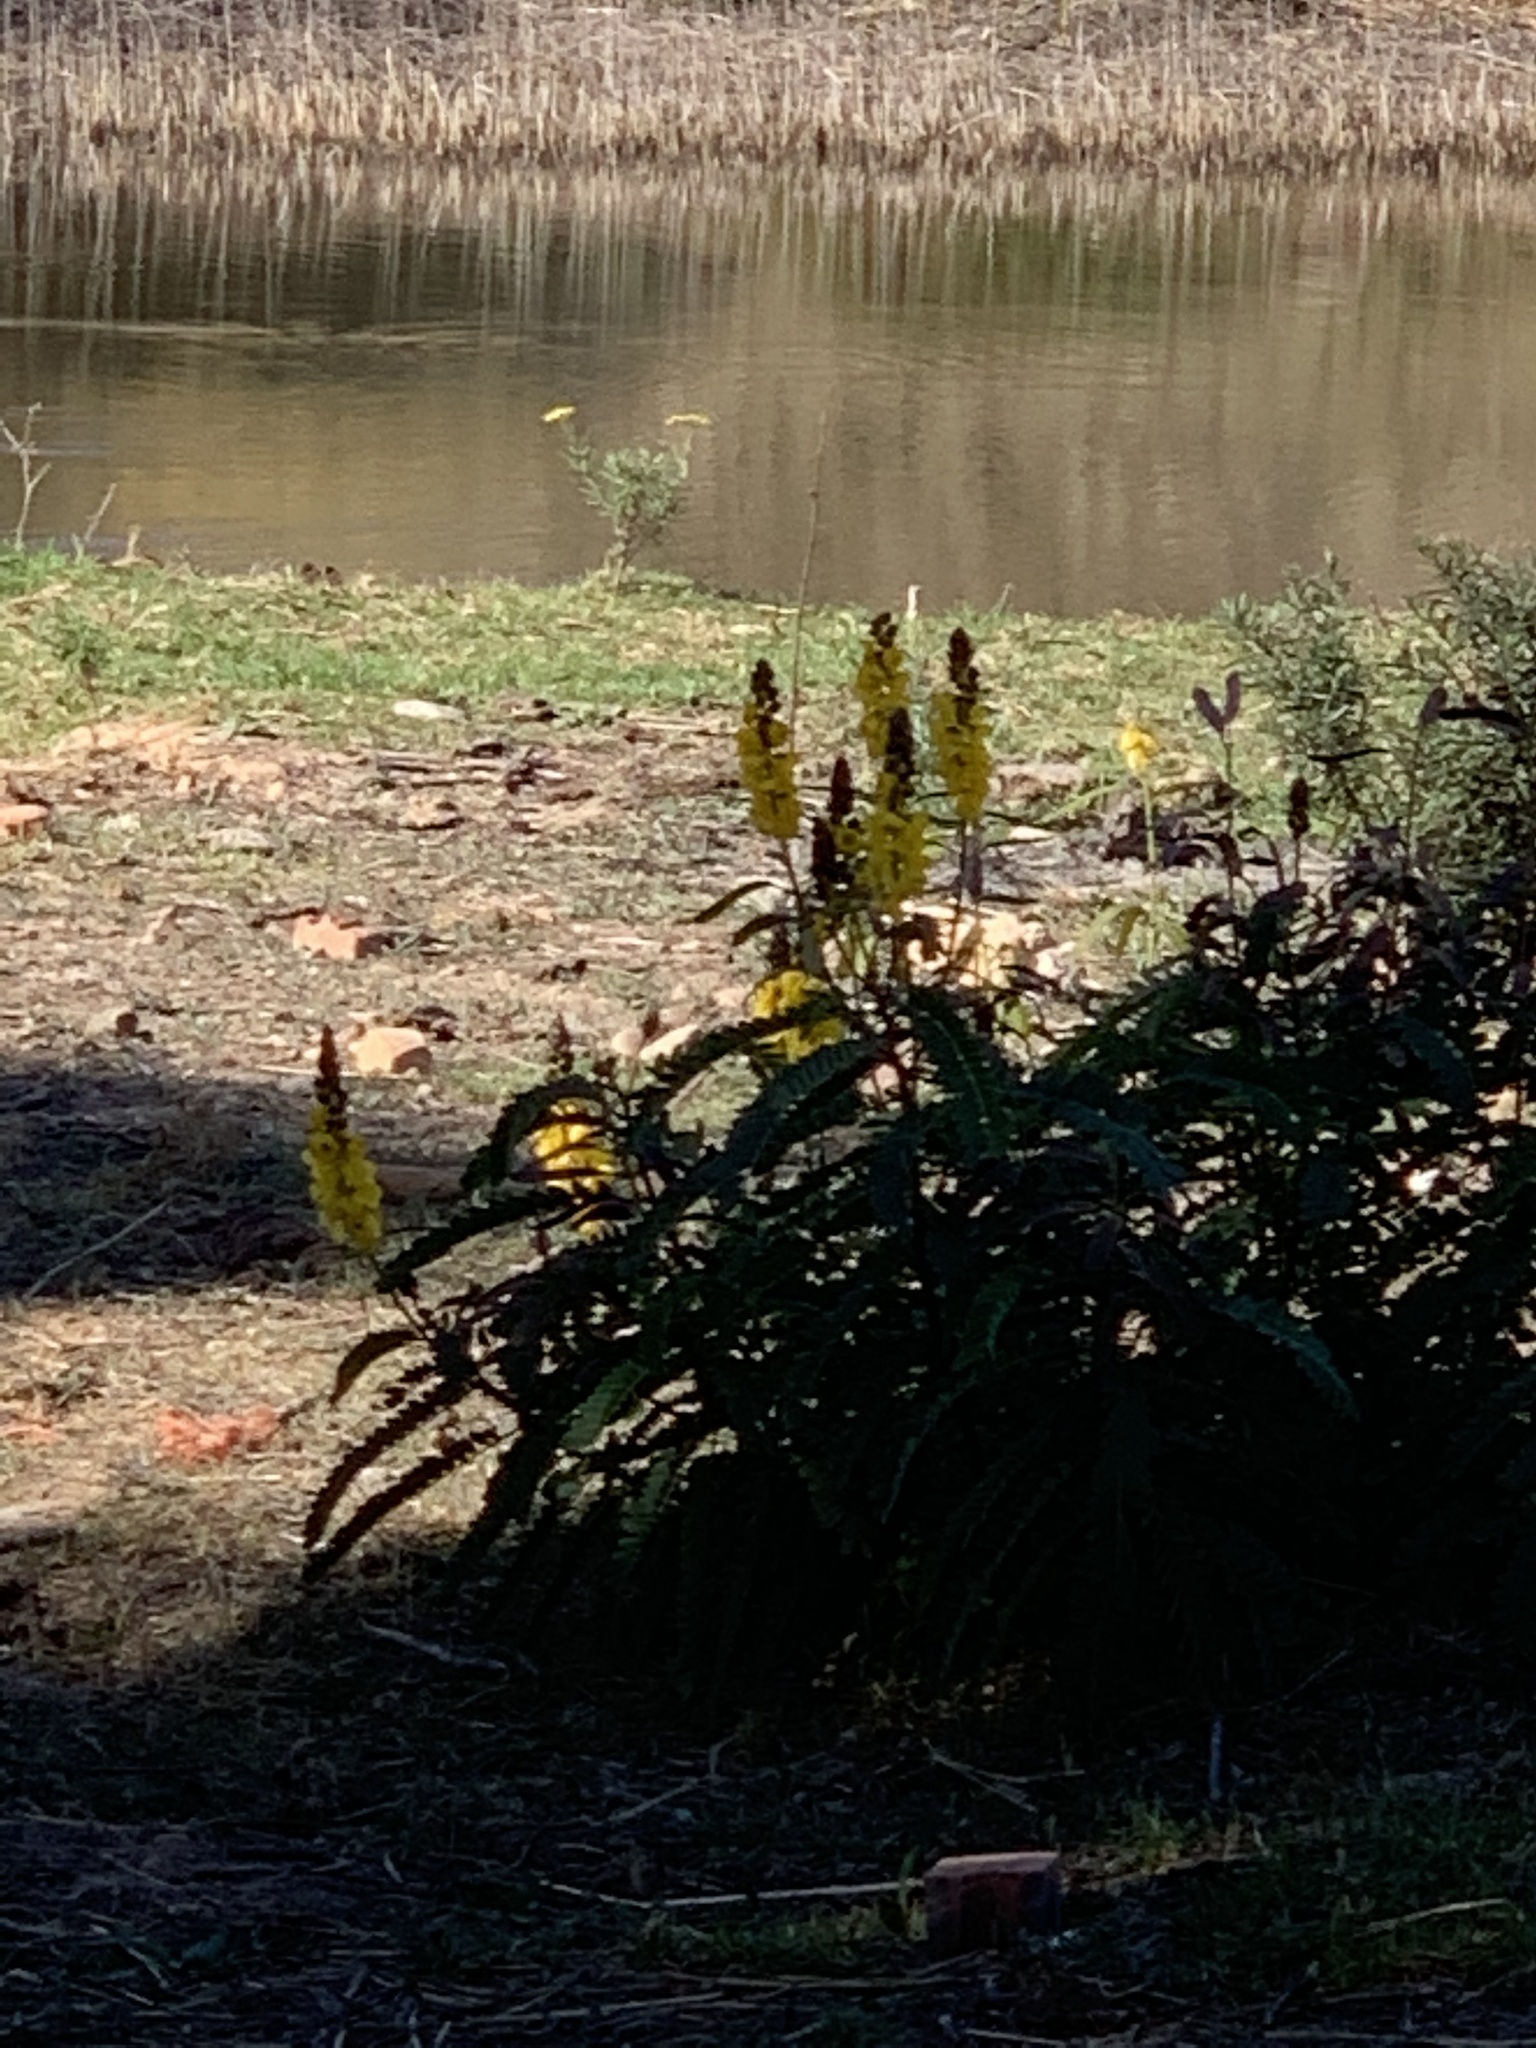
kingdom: Plantae
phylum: Tracheophyta
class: Magnoliopsida
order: Fabales
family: Fabaceae
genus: Senna
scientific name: Senna didymobotrya
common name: African senna
